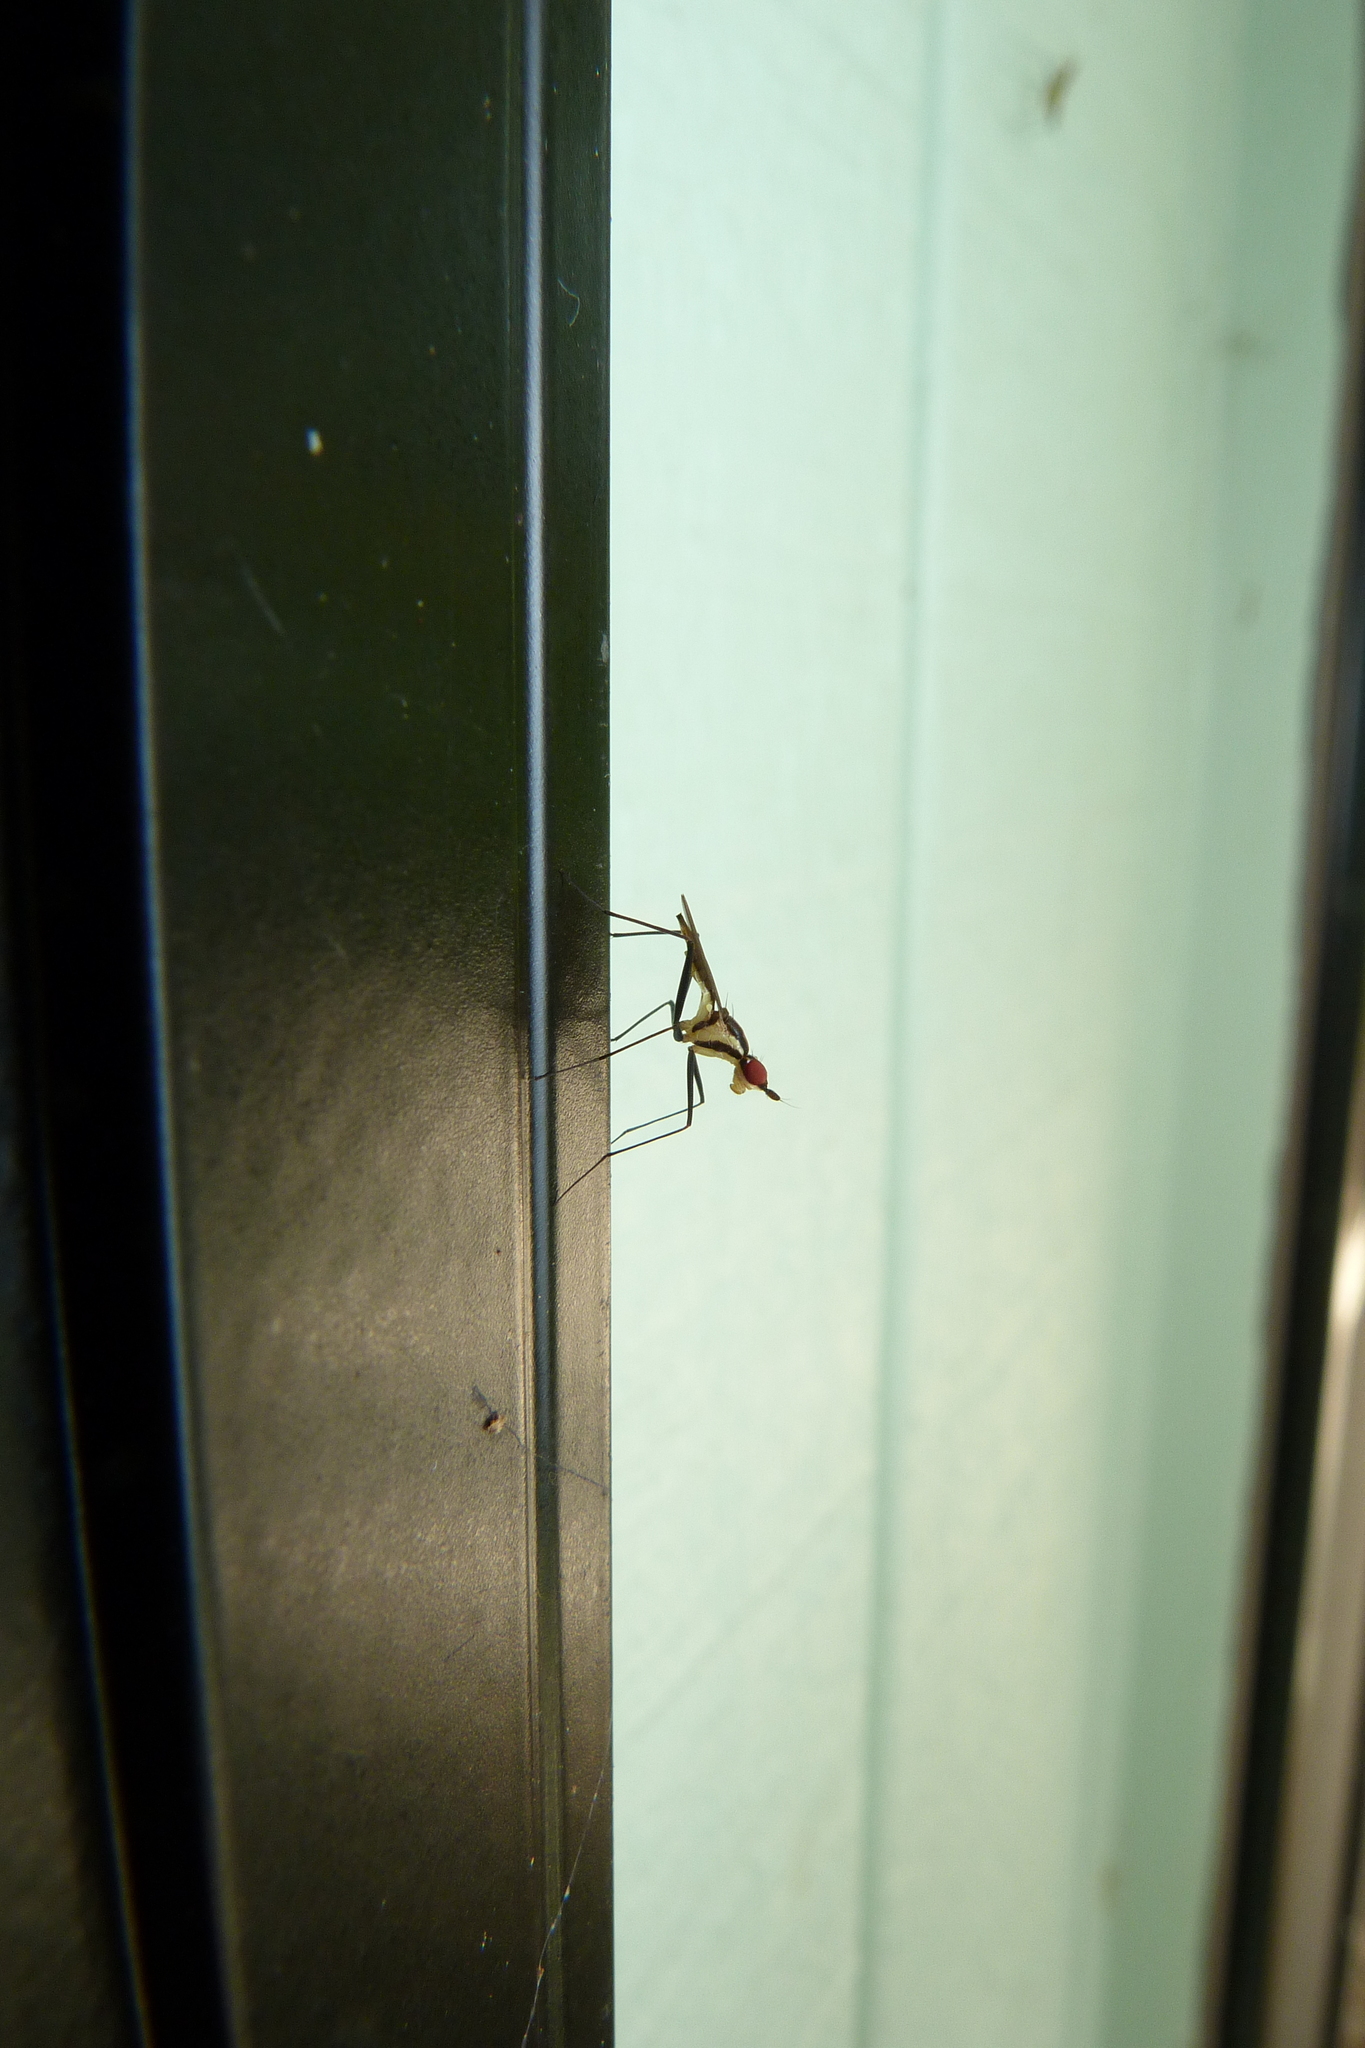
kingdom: Animalia
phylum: Arthropoda
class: Insecta
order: Diptera
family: Neriidae
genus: Telostylinus
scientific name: Telostylinus lineolatus
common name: Banana stalk fly
